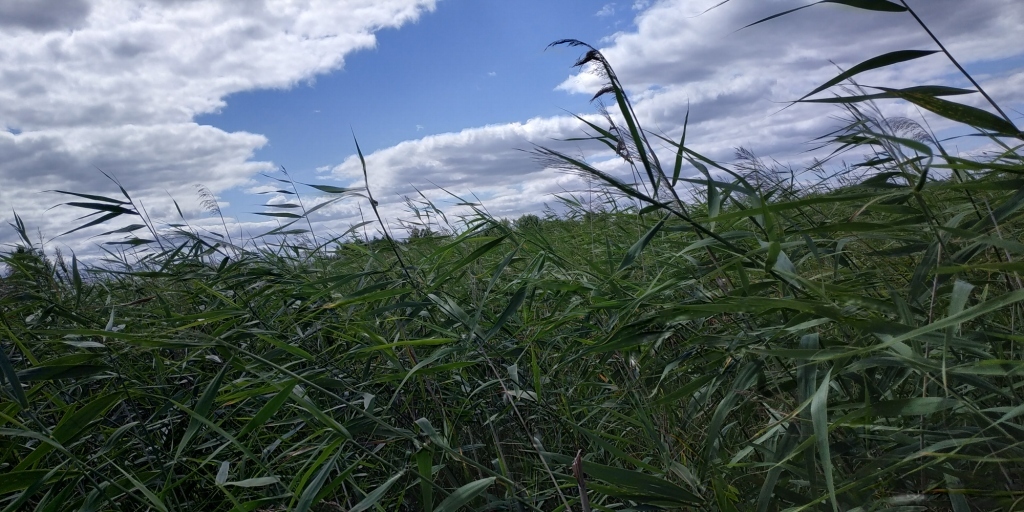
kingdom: Plantae
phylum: Tracheophyta
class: Liliopsida
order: Poales
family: Poaceae
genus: Phragmites
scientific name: Phragmites australis
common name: Common reed
